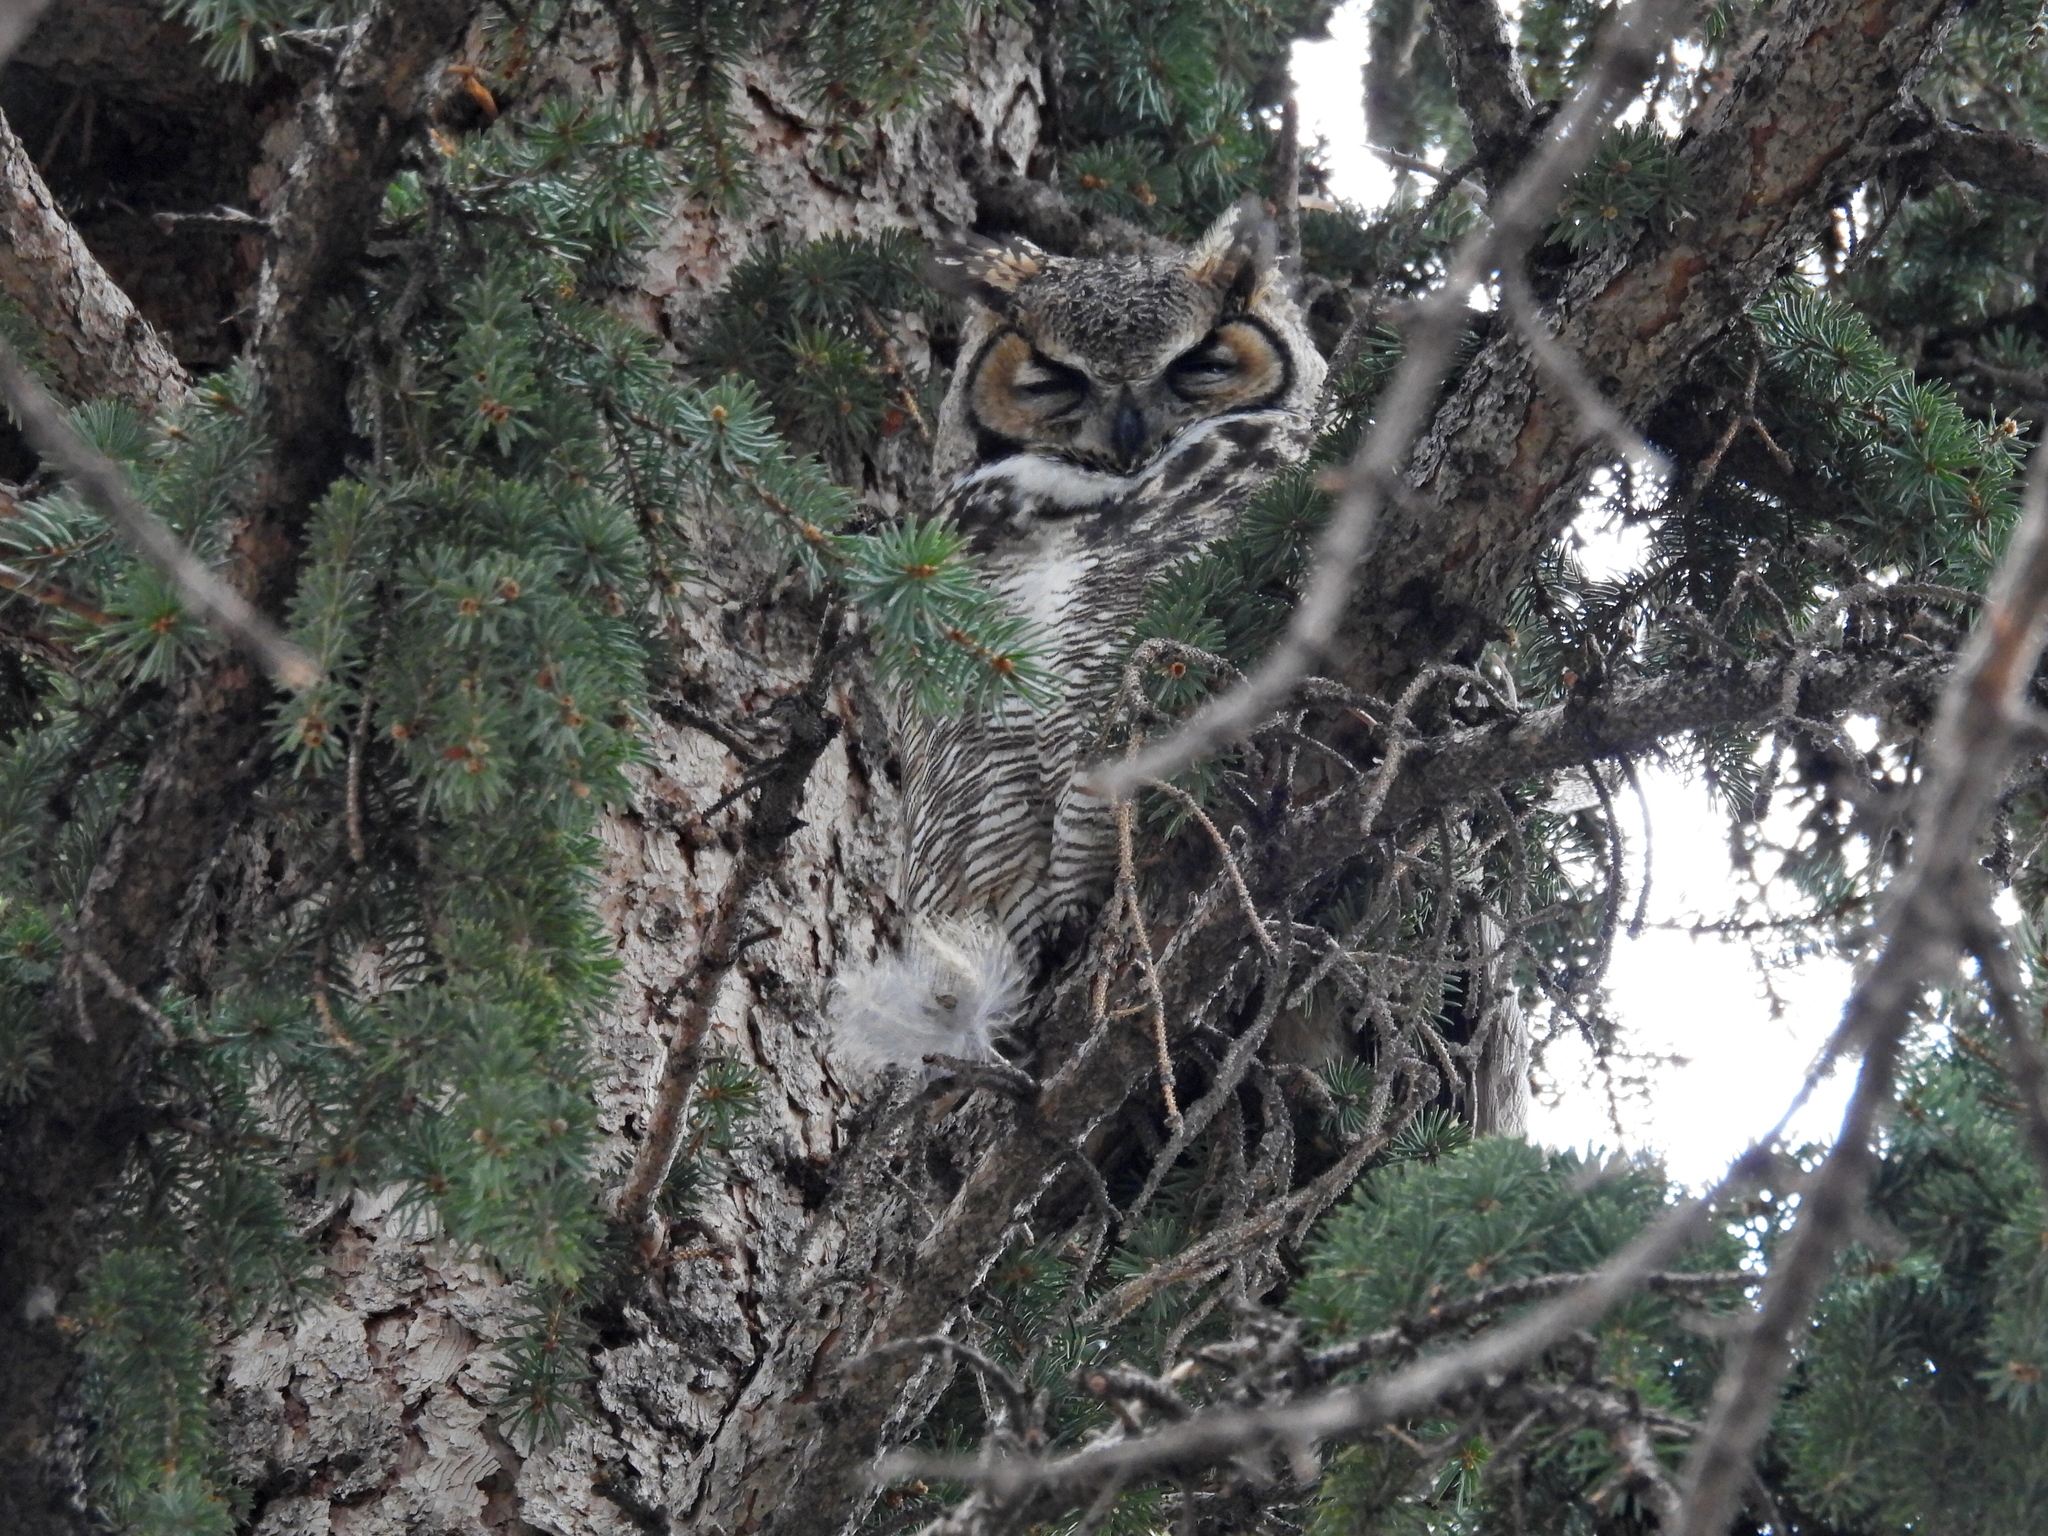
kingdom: Animalia
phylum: Chordata
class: Aves
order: Strigiformes
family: Strigidae
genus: Bubo
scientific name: Bubo virginianus
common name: Great horned owl
